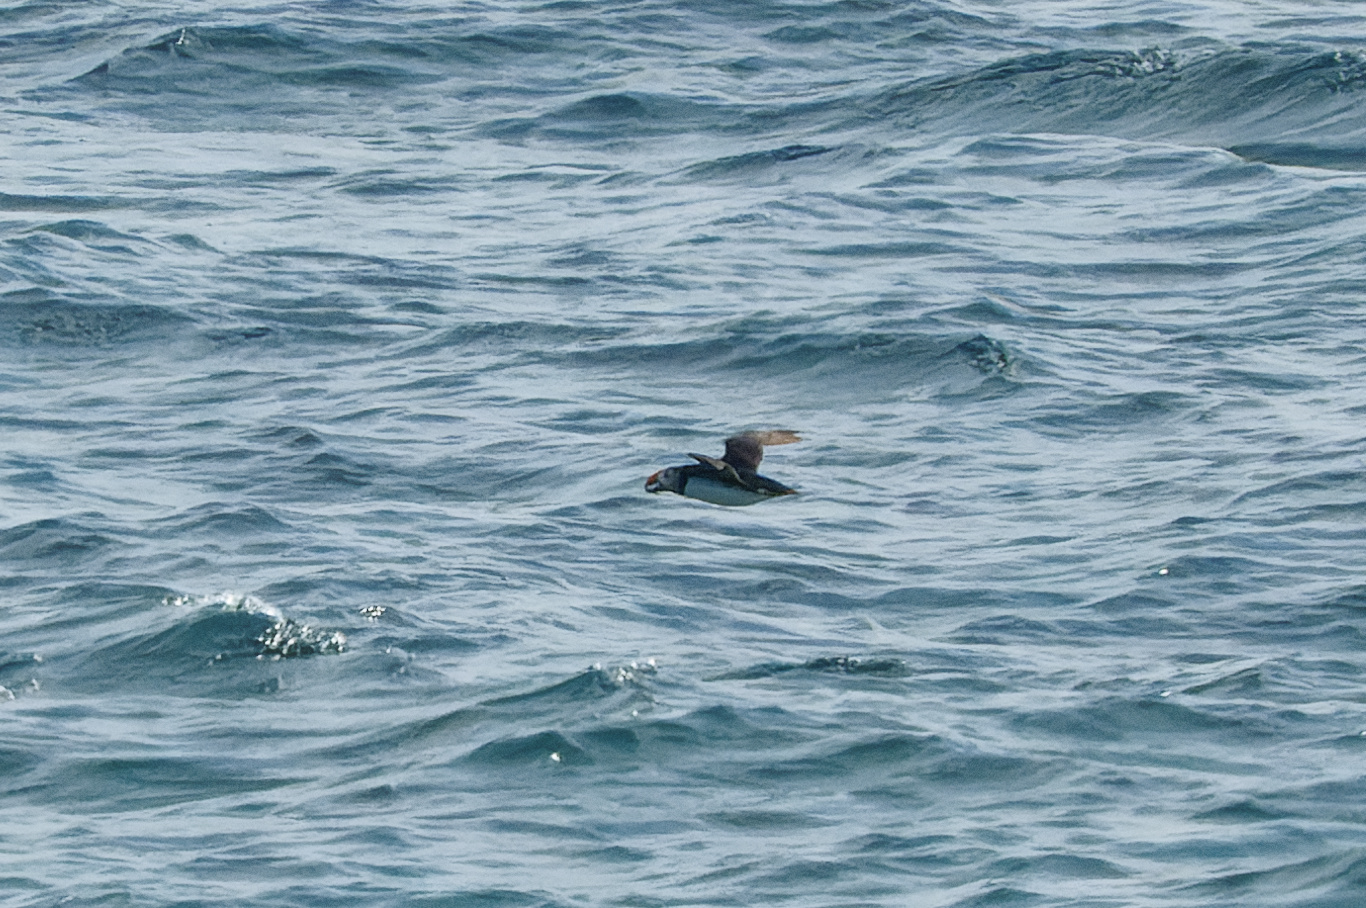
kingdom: Animalia
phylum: Chordata
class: Aves
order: Charadriiformes
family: Alcidae
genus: Fratercula
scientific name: Fratercula arctica
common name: Atlantic puffin
